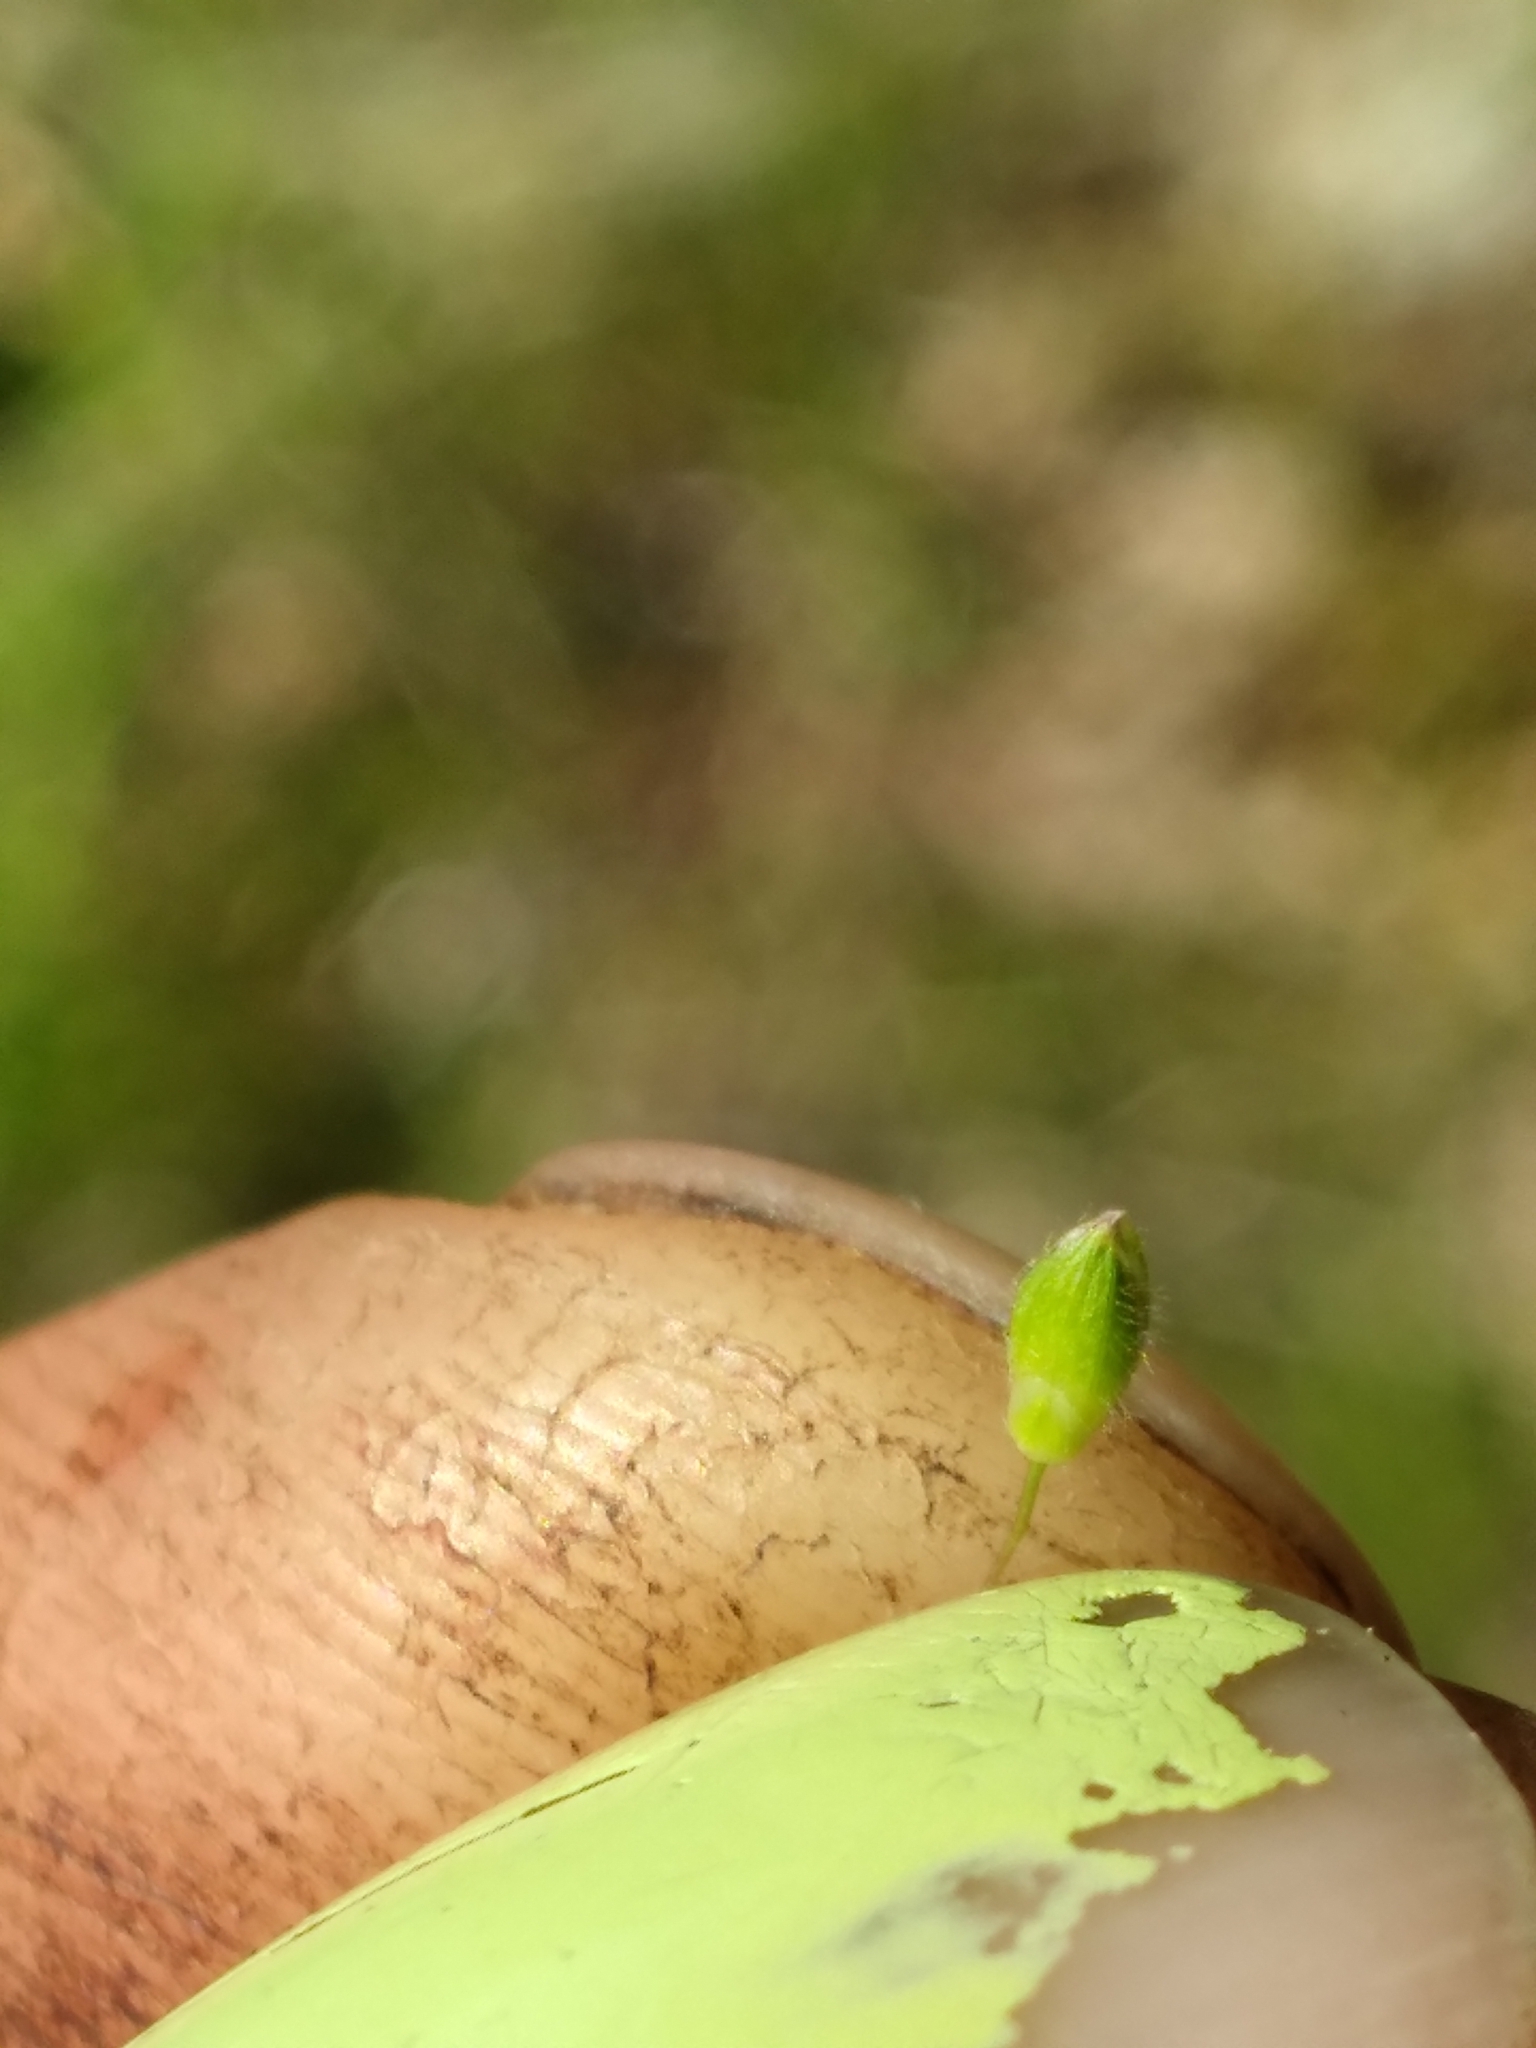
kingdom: Plantae
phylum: Tracheophyta
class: Liliopsida
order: Poales
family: Poaceae
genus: Dichanthelium
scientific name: Dichanthelium depauperatum
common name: Depauperate panicgrass
